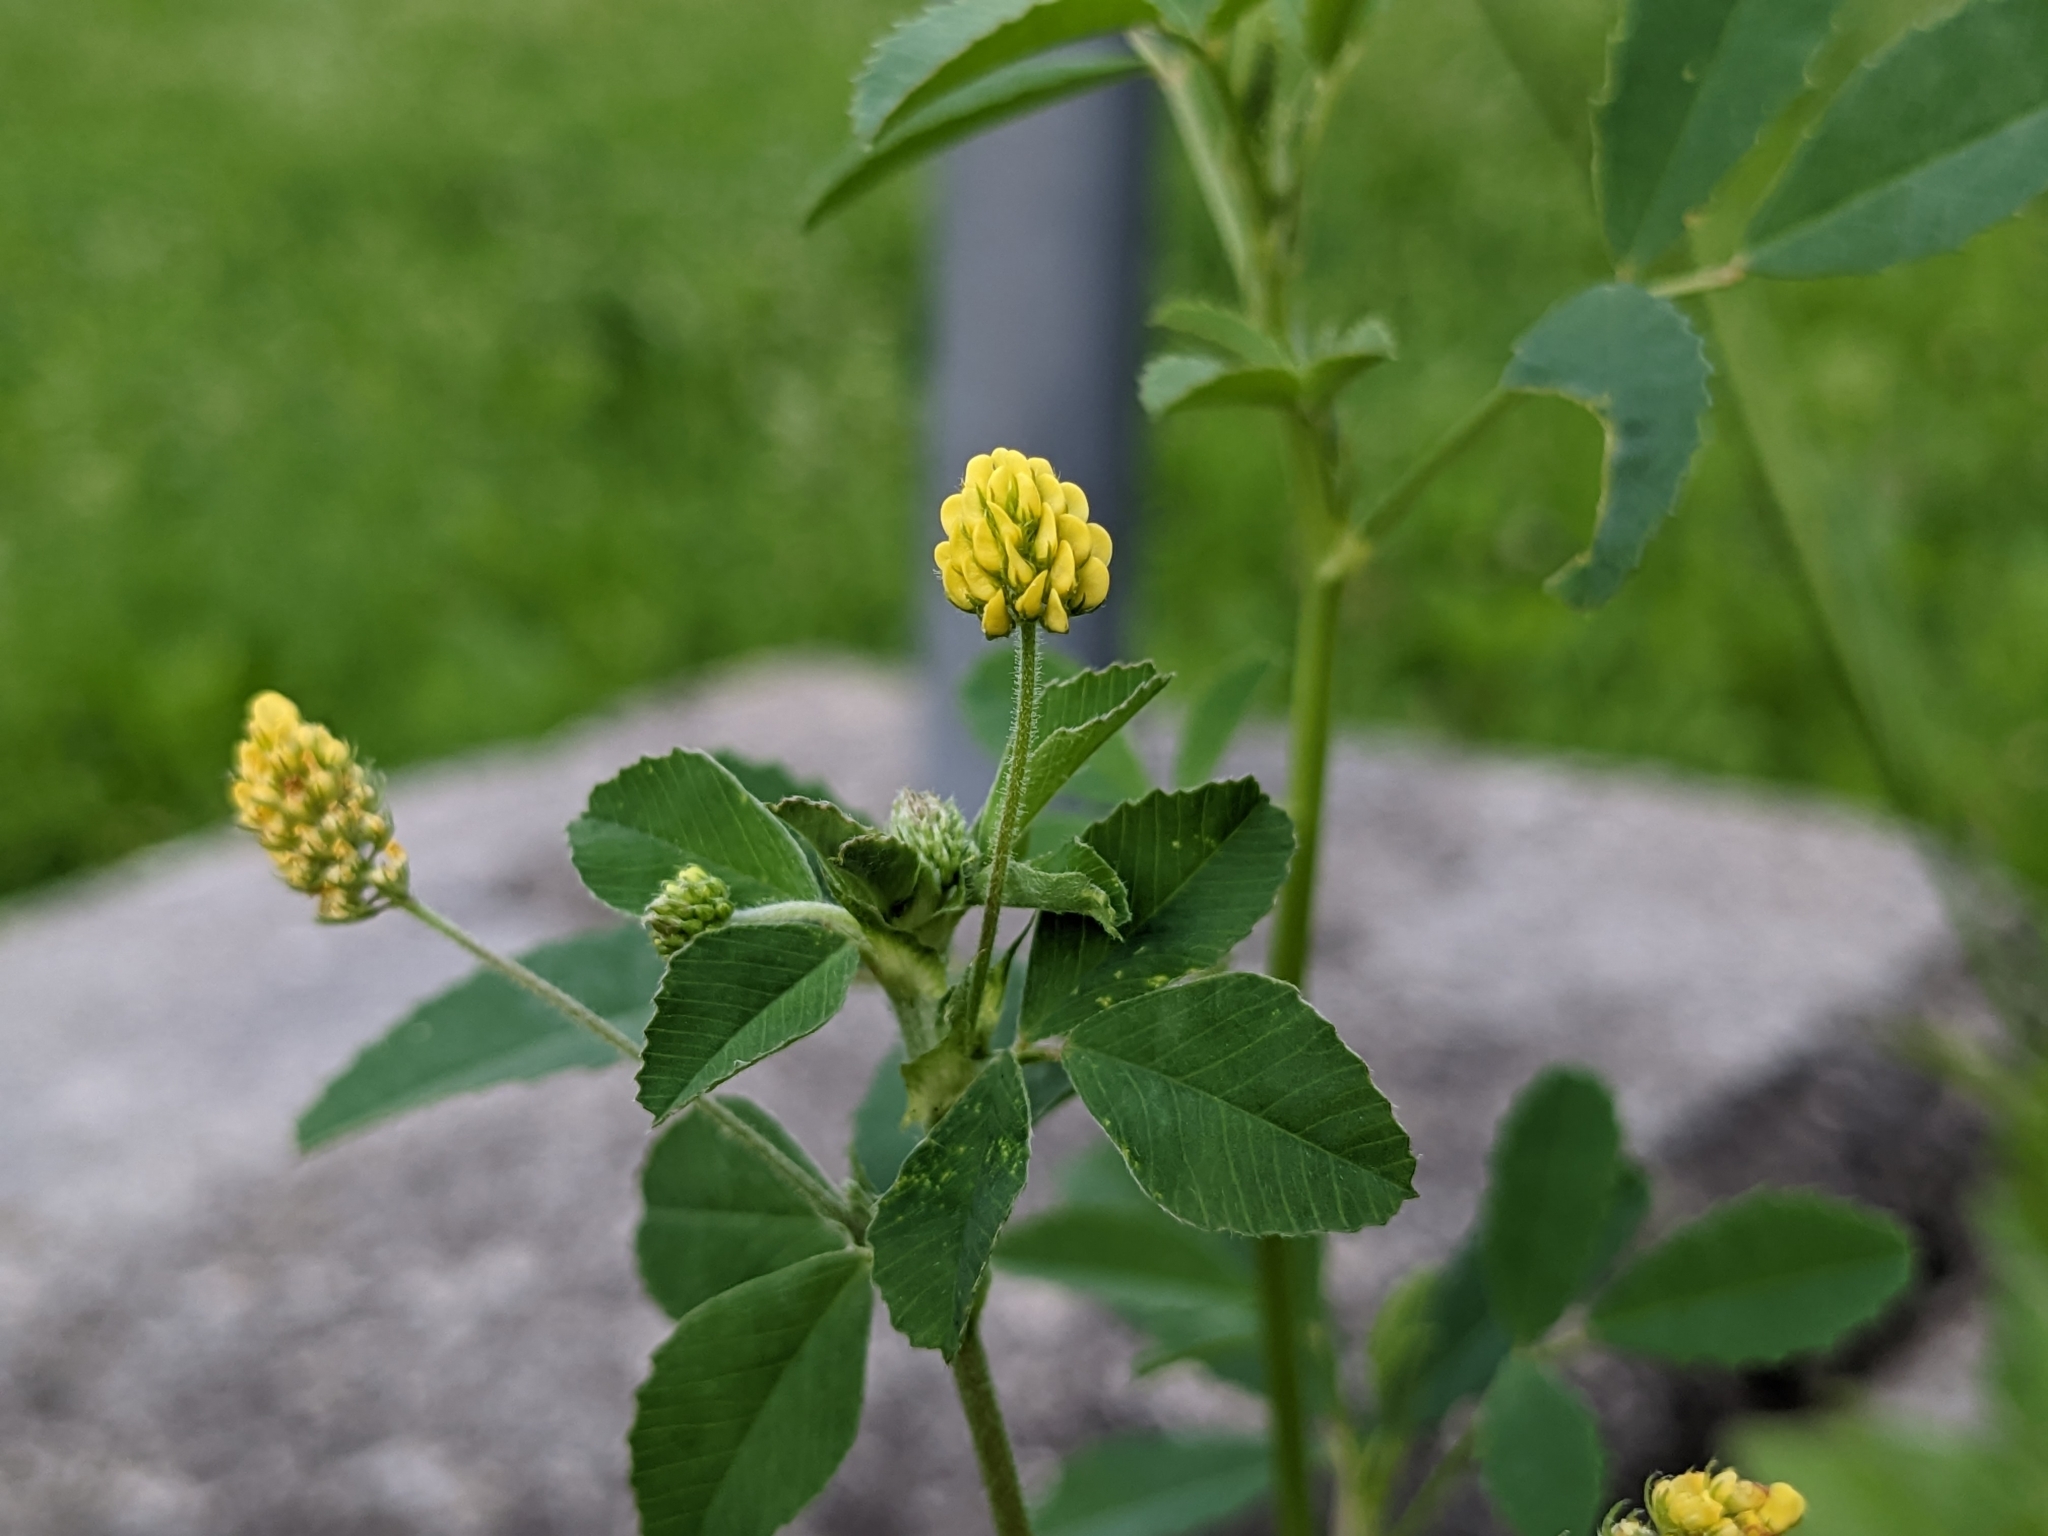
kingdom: Plantae
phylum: Tracheophyta
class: Magnoliopsida
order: Fabales
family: Fabaceae
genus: Medicago
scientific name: Medicago lupulina
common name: Black medick
